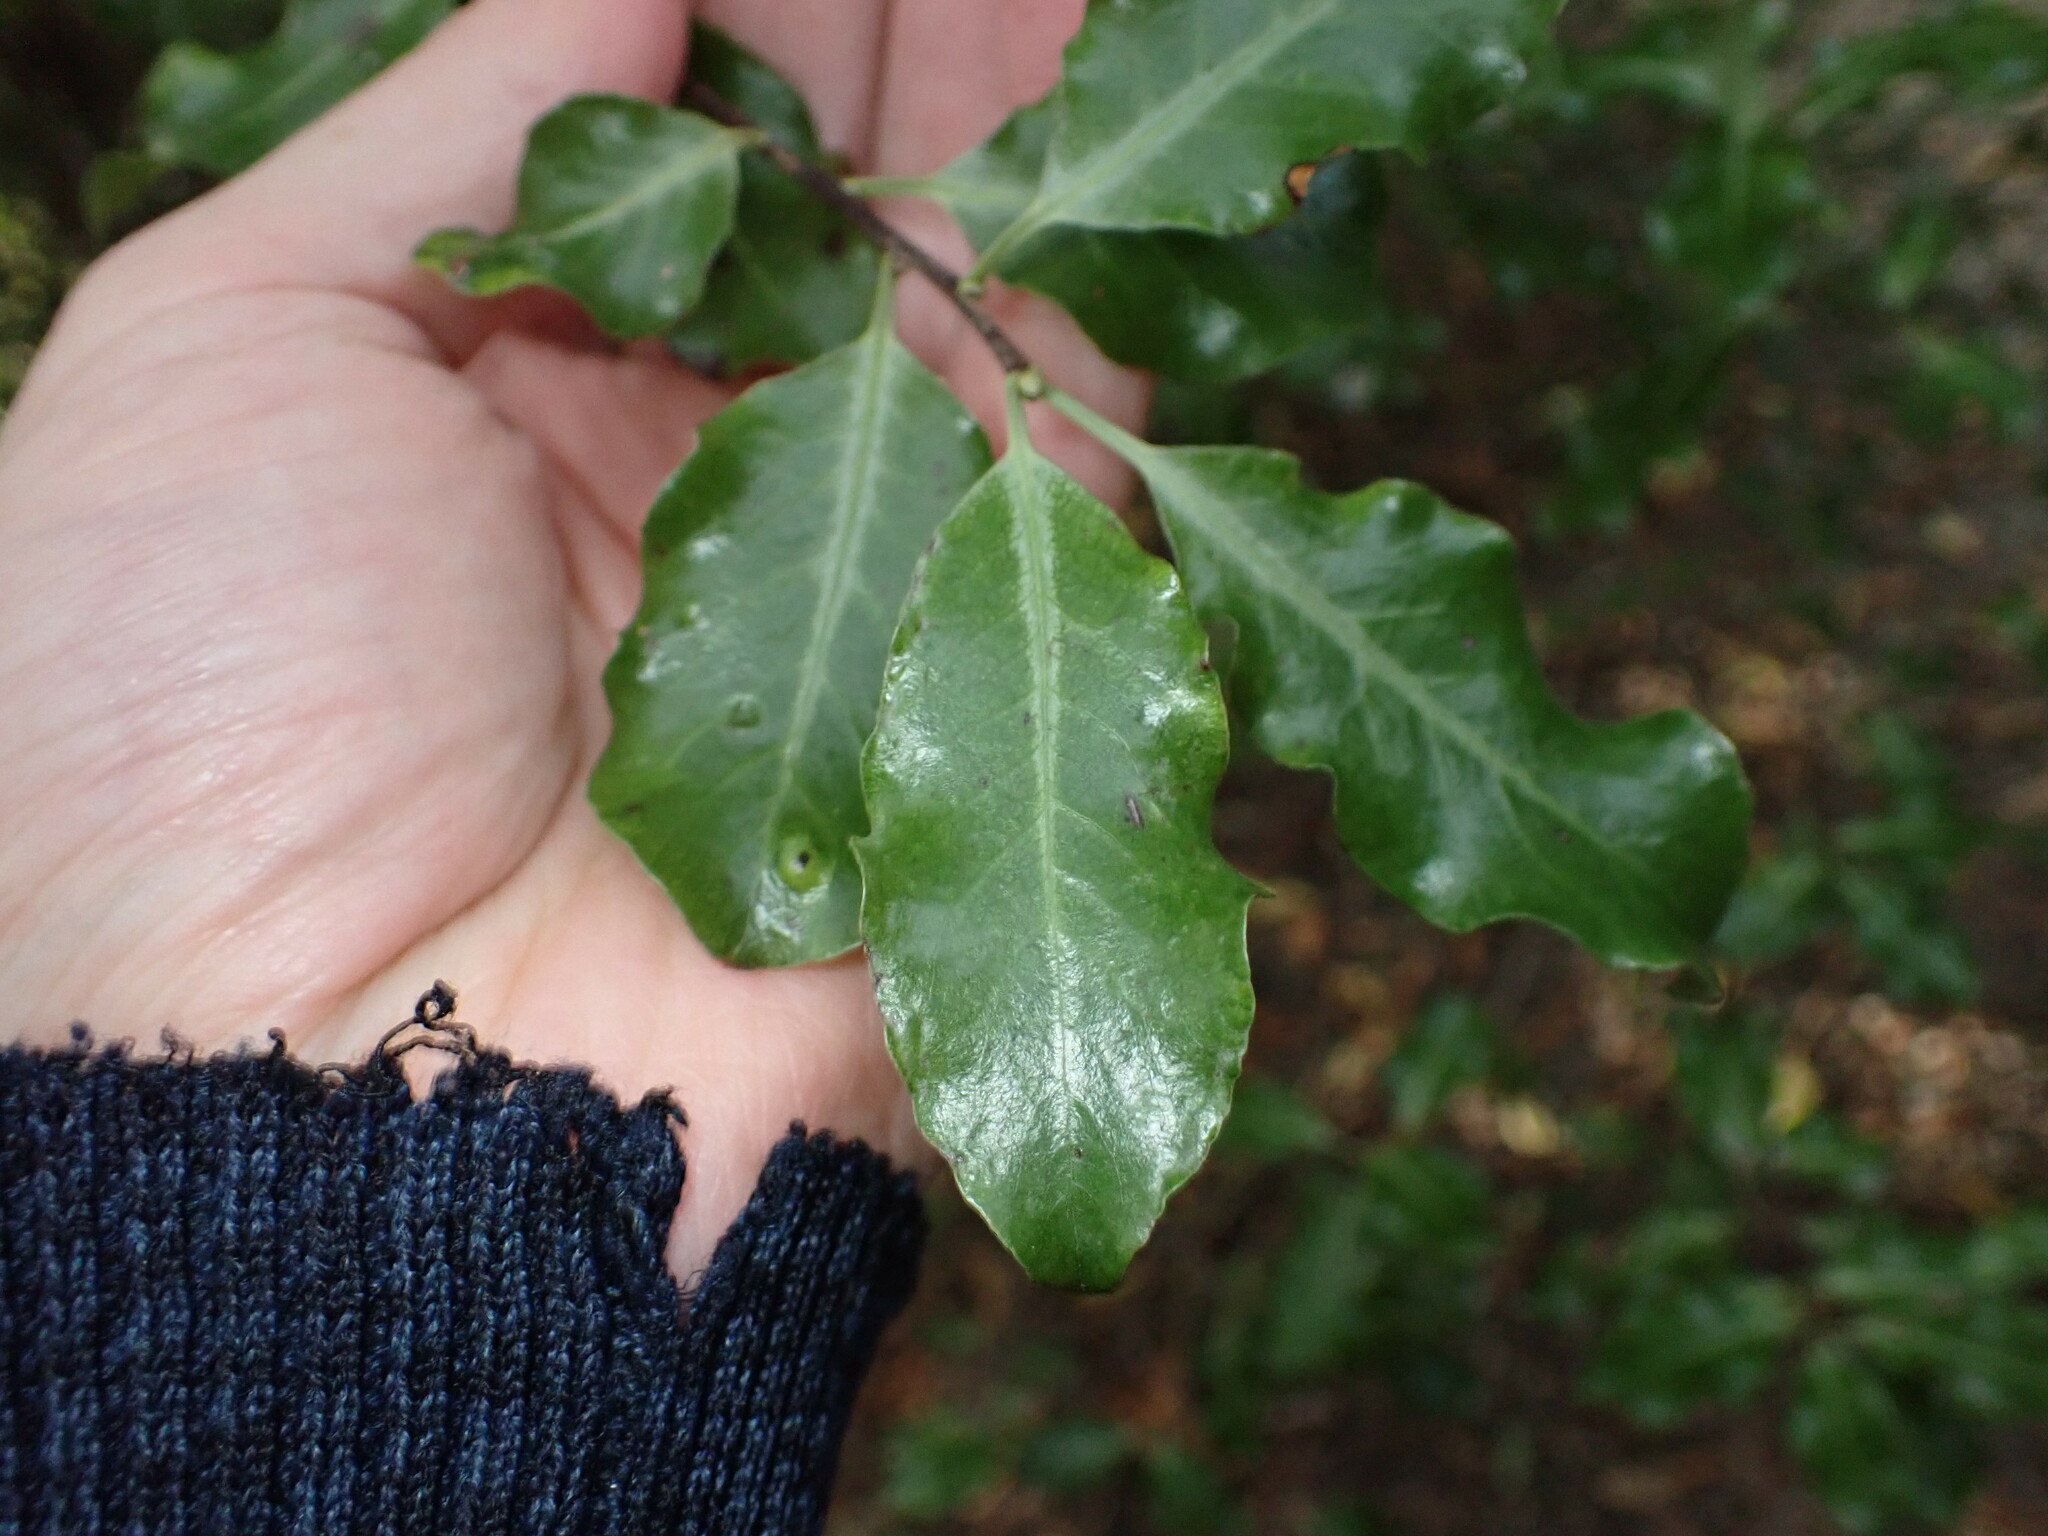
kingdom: Plantae
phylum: Tracheophyta
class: Magnoliopsida
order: Apiales
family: Pittosporaceae
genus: Pittosporum
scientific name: Pittosporum tenuifolium
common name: Kohuhu
